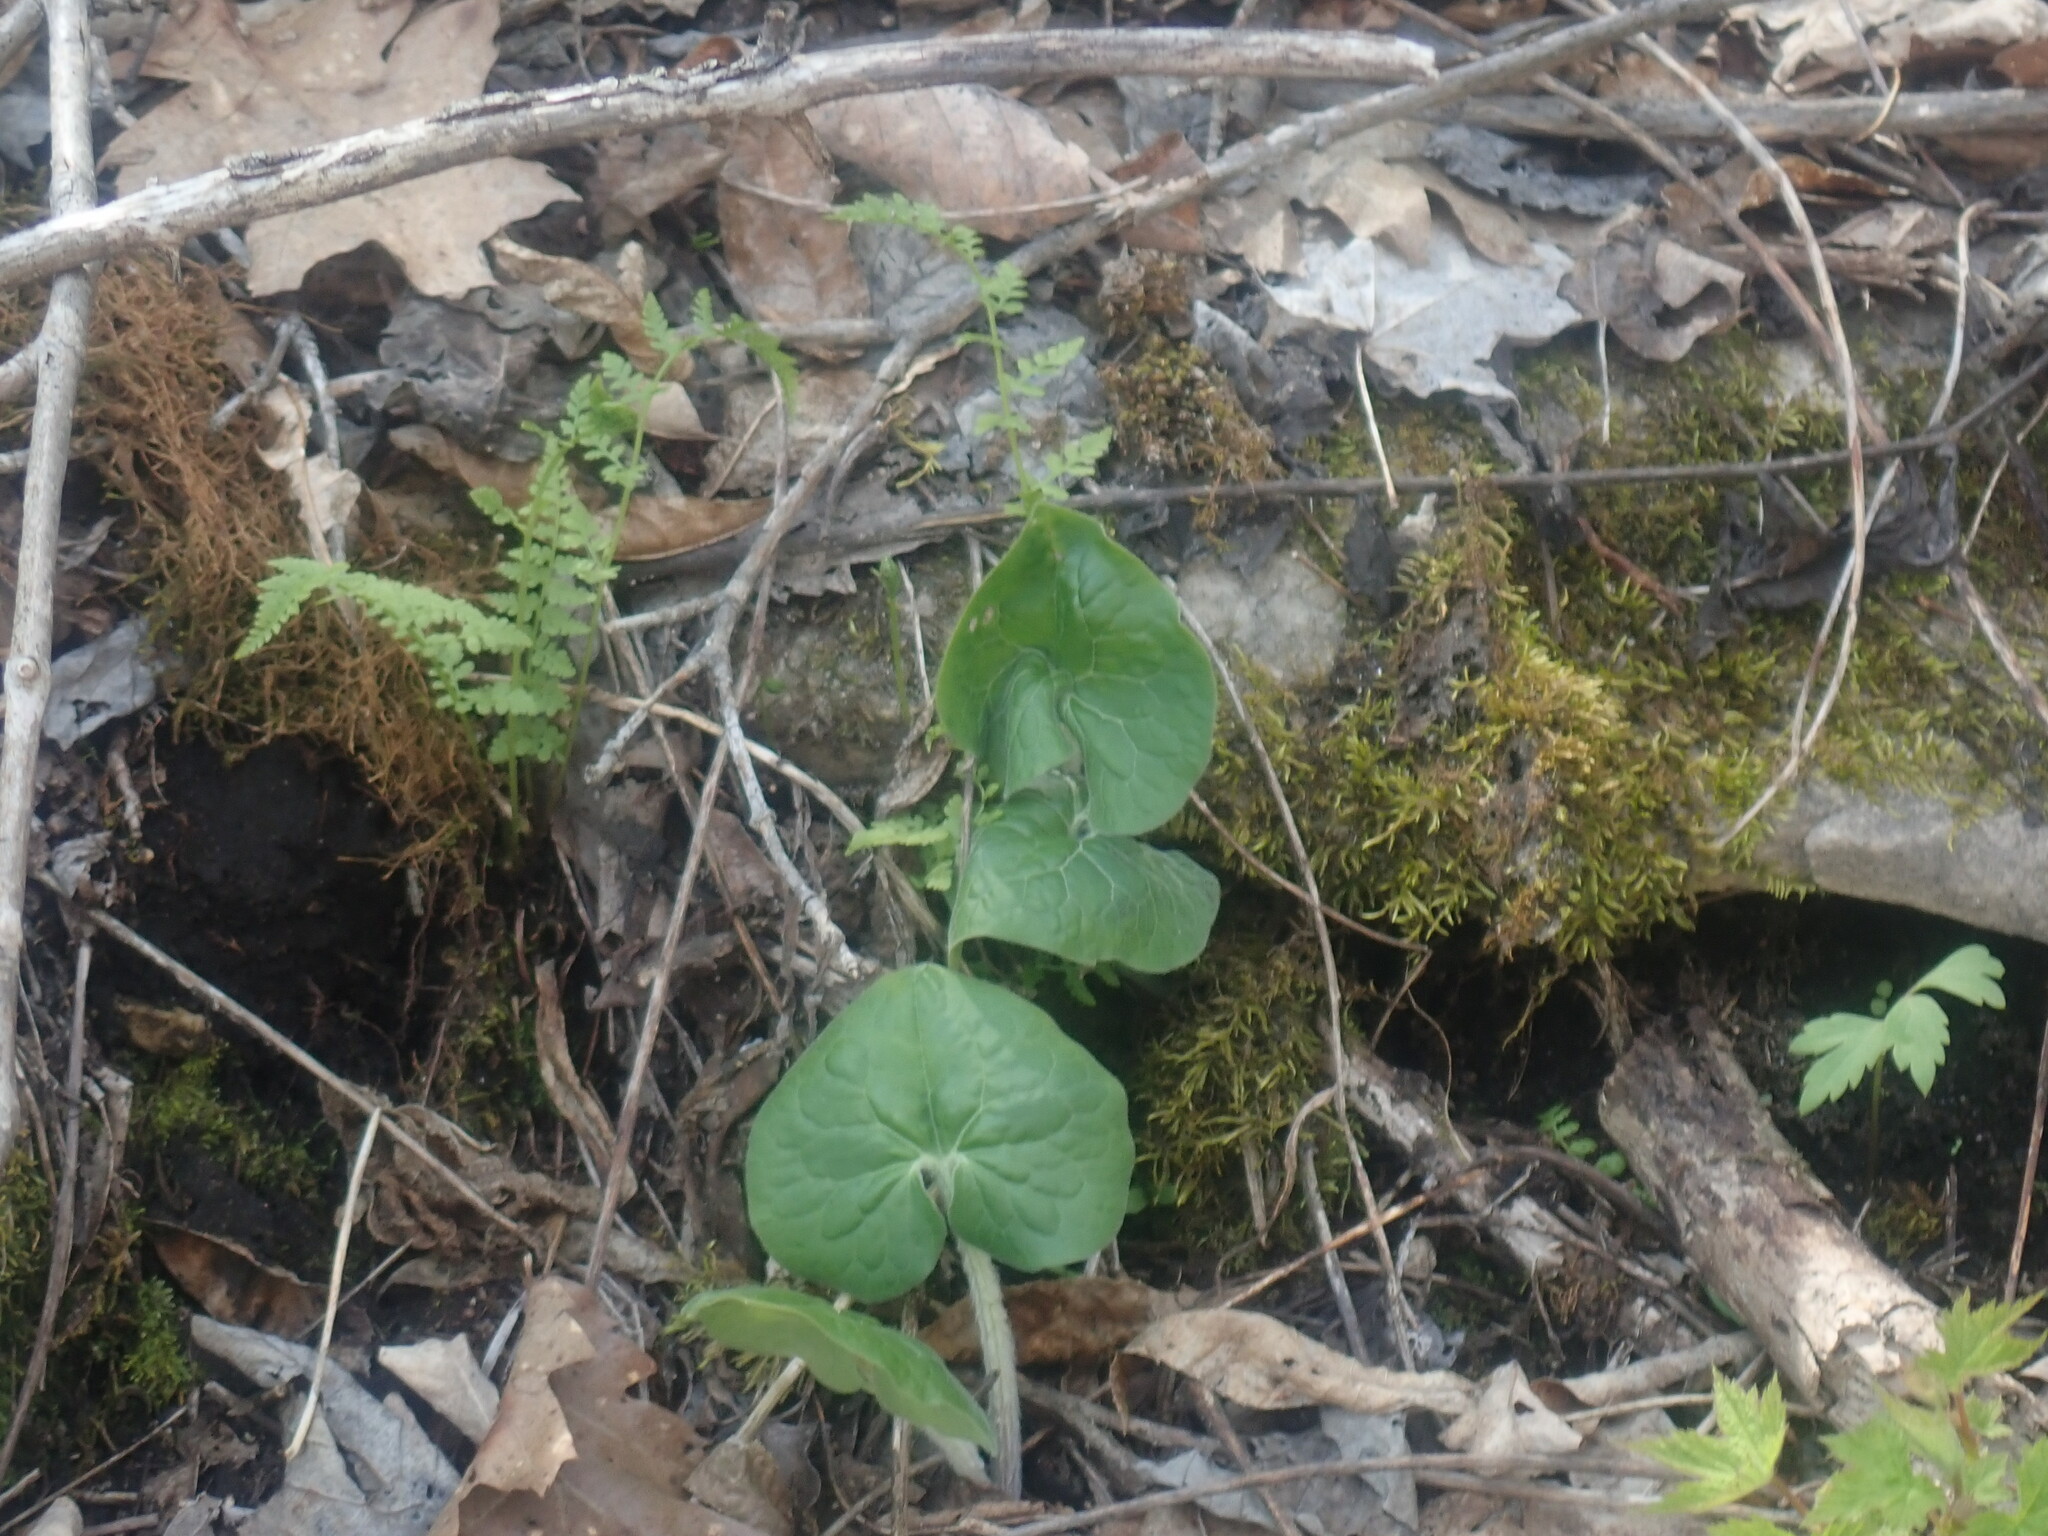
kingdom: Plantae
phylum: Tracheophyta
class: Magnoliopsida
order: Piperales
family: Aristolochiaceae
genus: Asarum
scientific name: Asarum canadense
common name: Wild ginger
